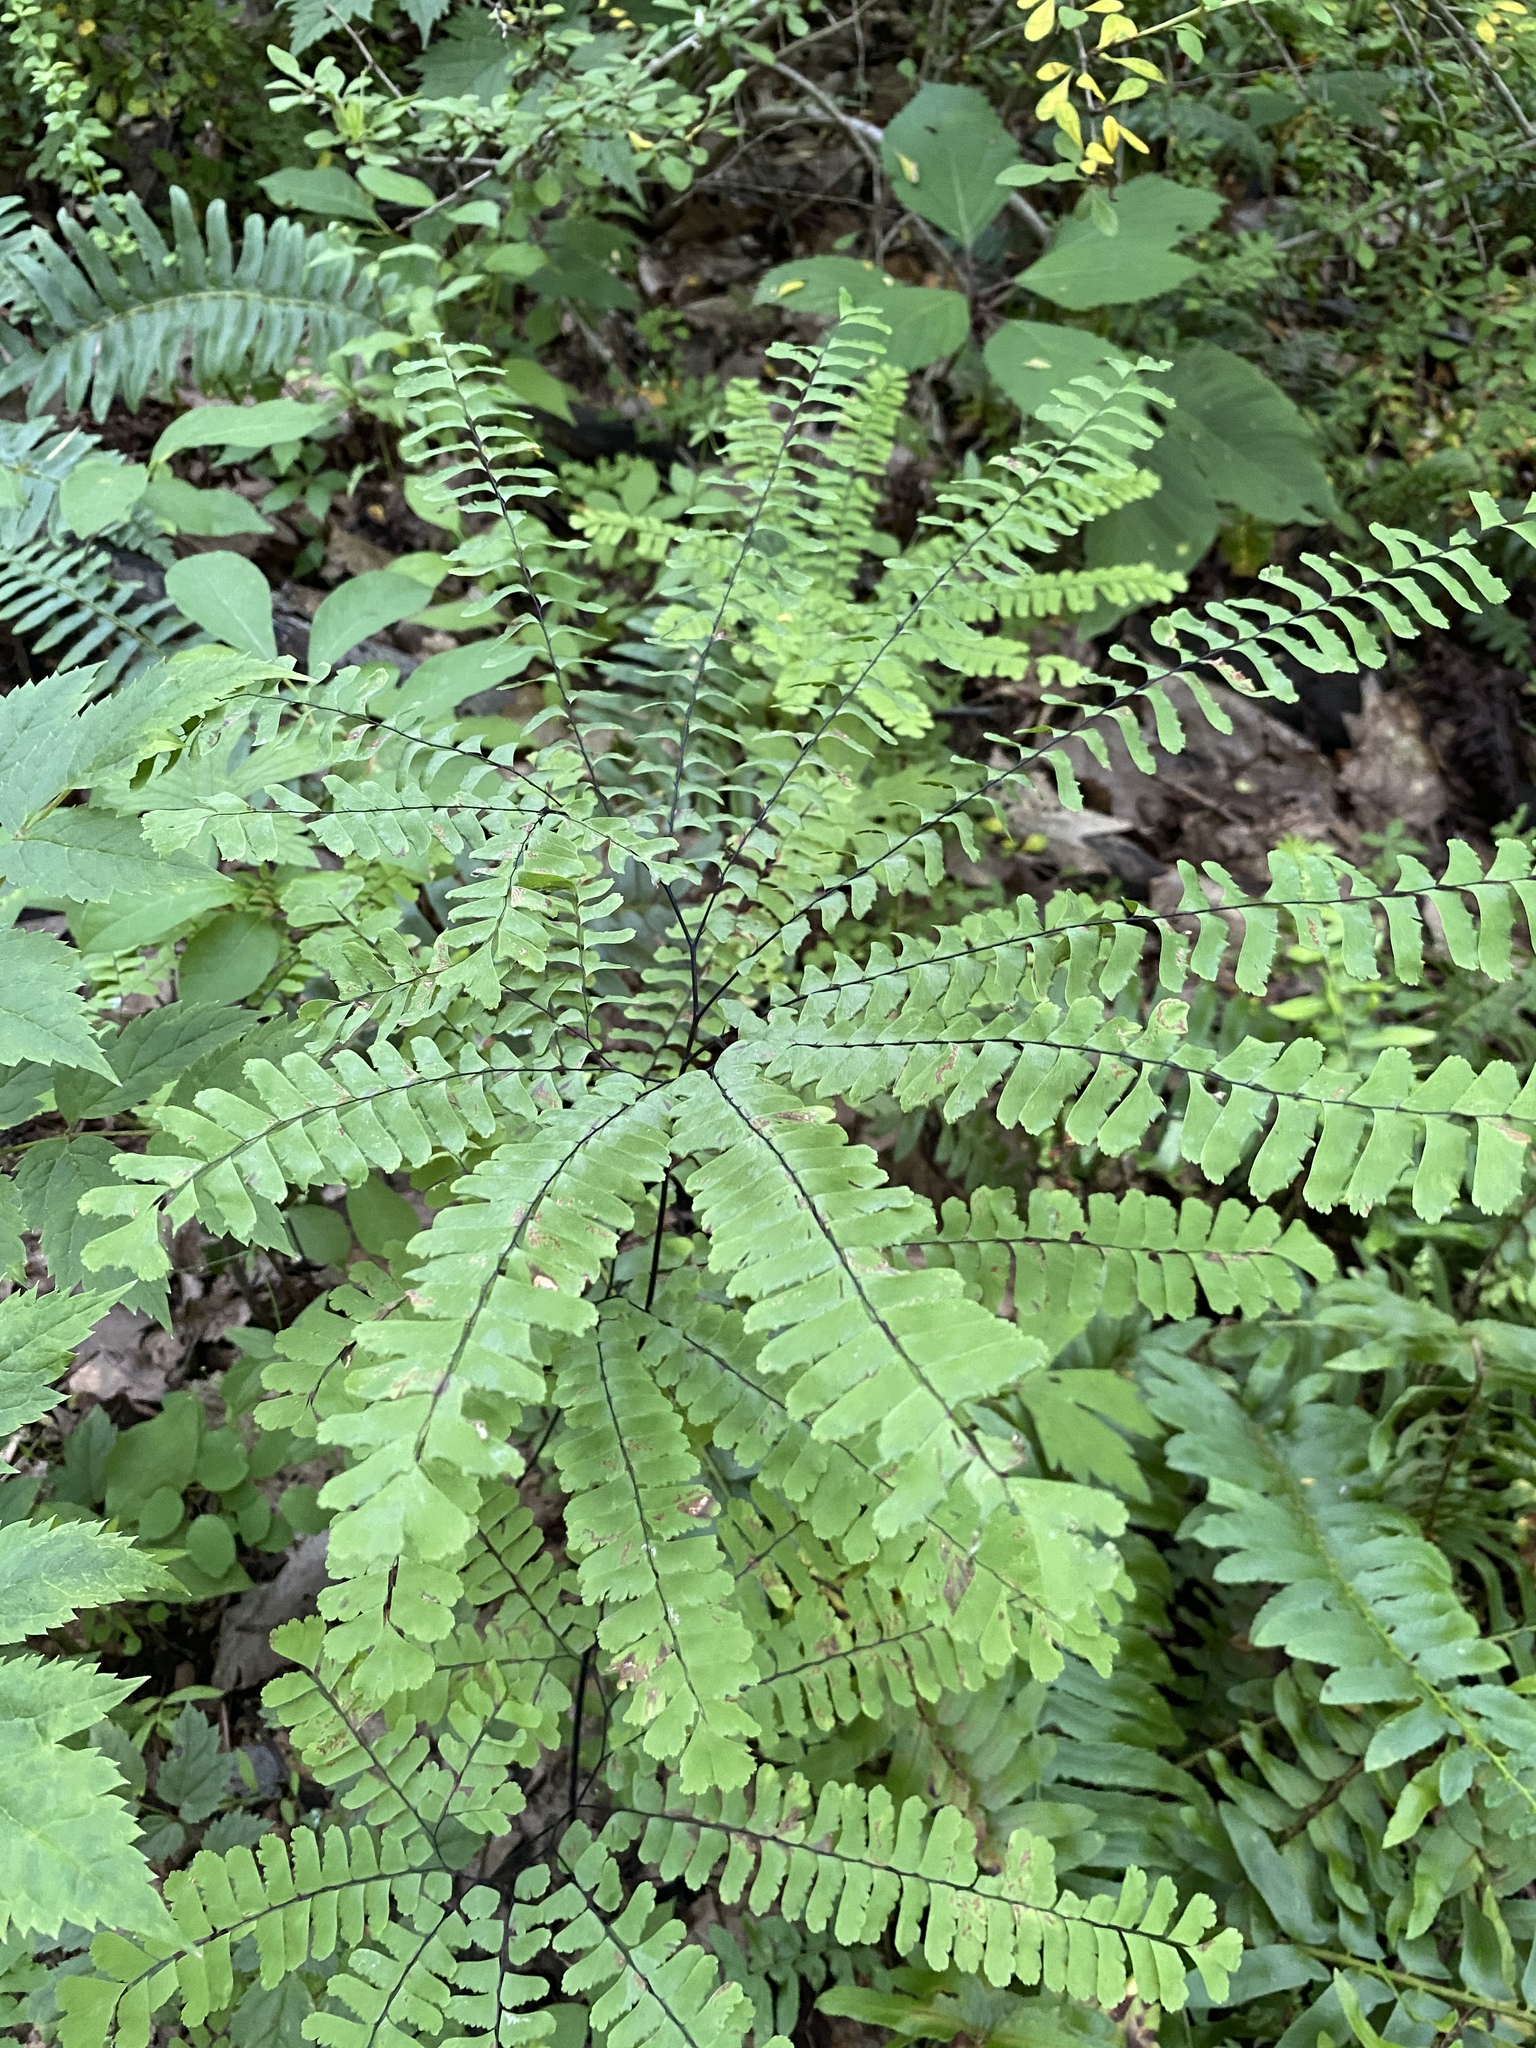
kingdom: Plantae
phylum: Tracheophyta
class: Polypodiopsida
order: Polypodiales
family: Pteridaceae
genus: Adiantum
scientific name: Adiantum pedatum
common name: Five-finger fern
